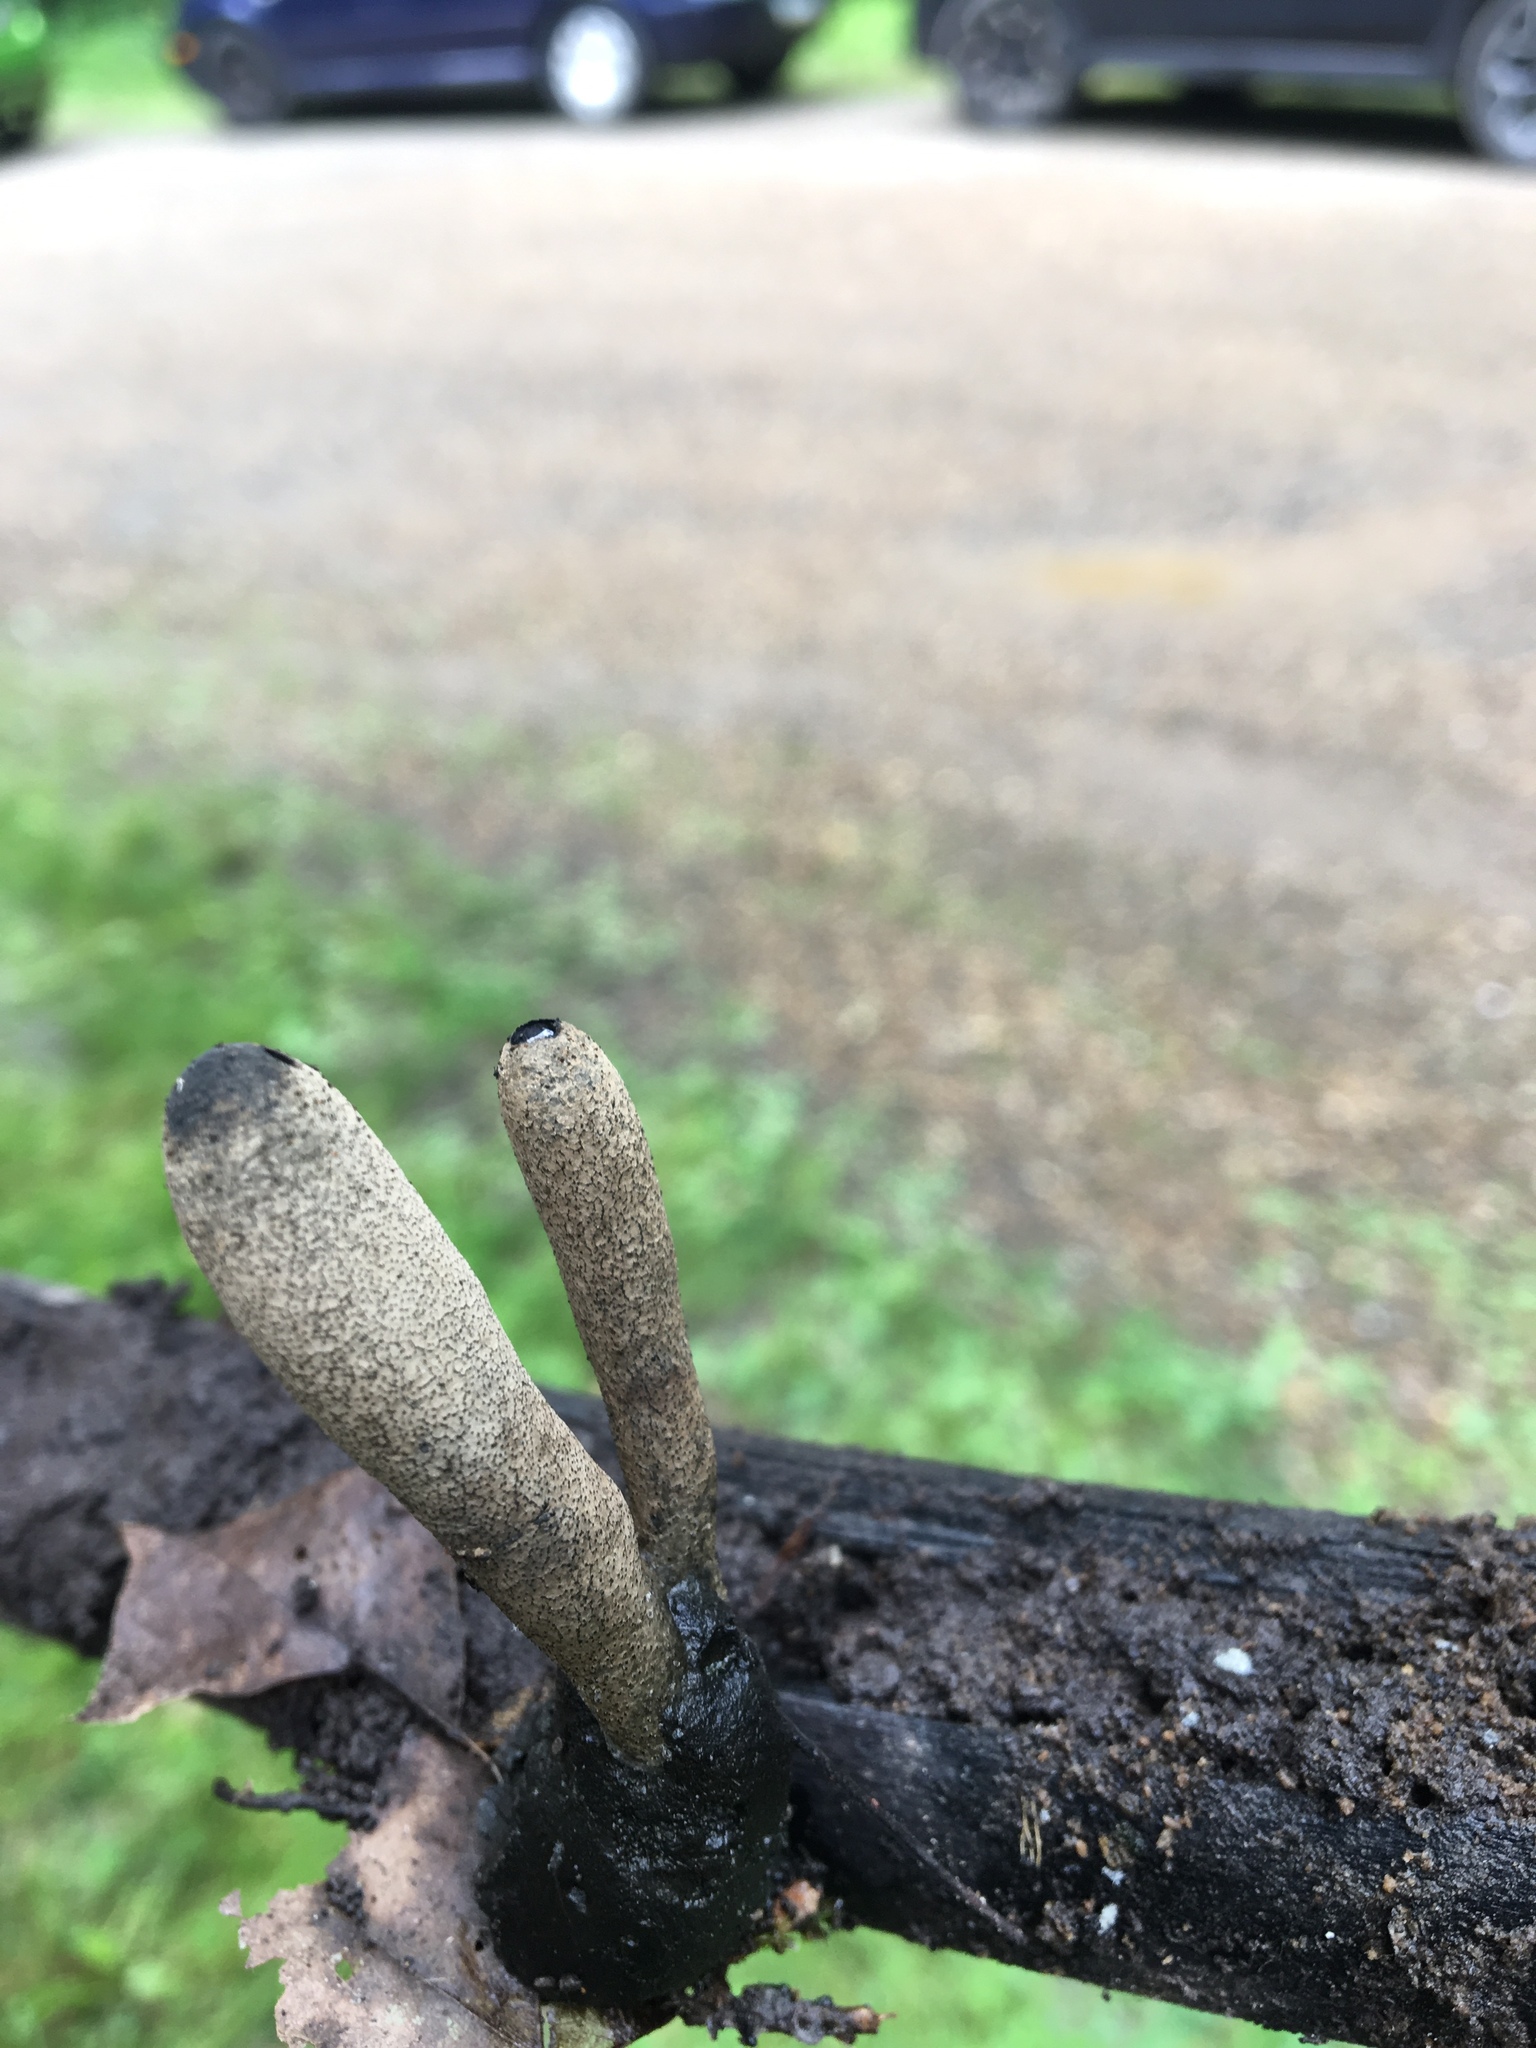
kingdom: Fungi
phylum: Ascomycota
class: Sordariomycetes
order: Xylariales
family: Xylariaceae
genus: Xylaria
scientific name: Xylaria polymorpha
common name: Dead man's fingers
